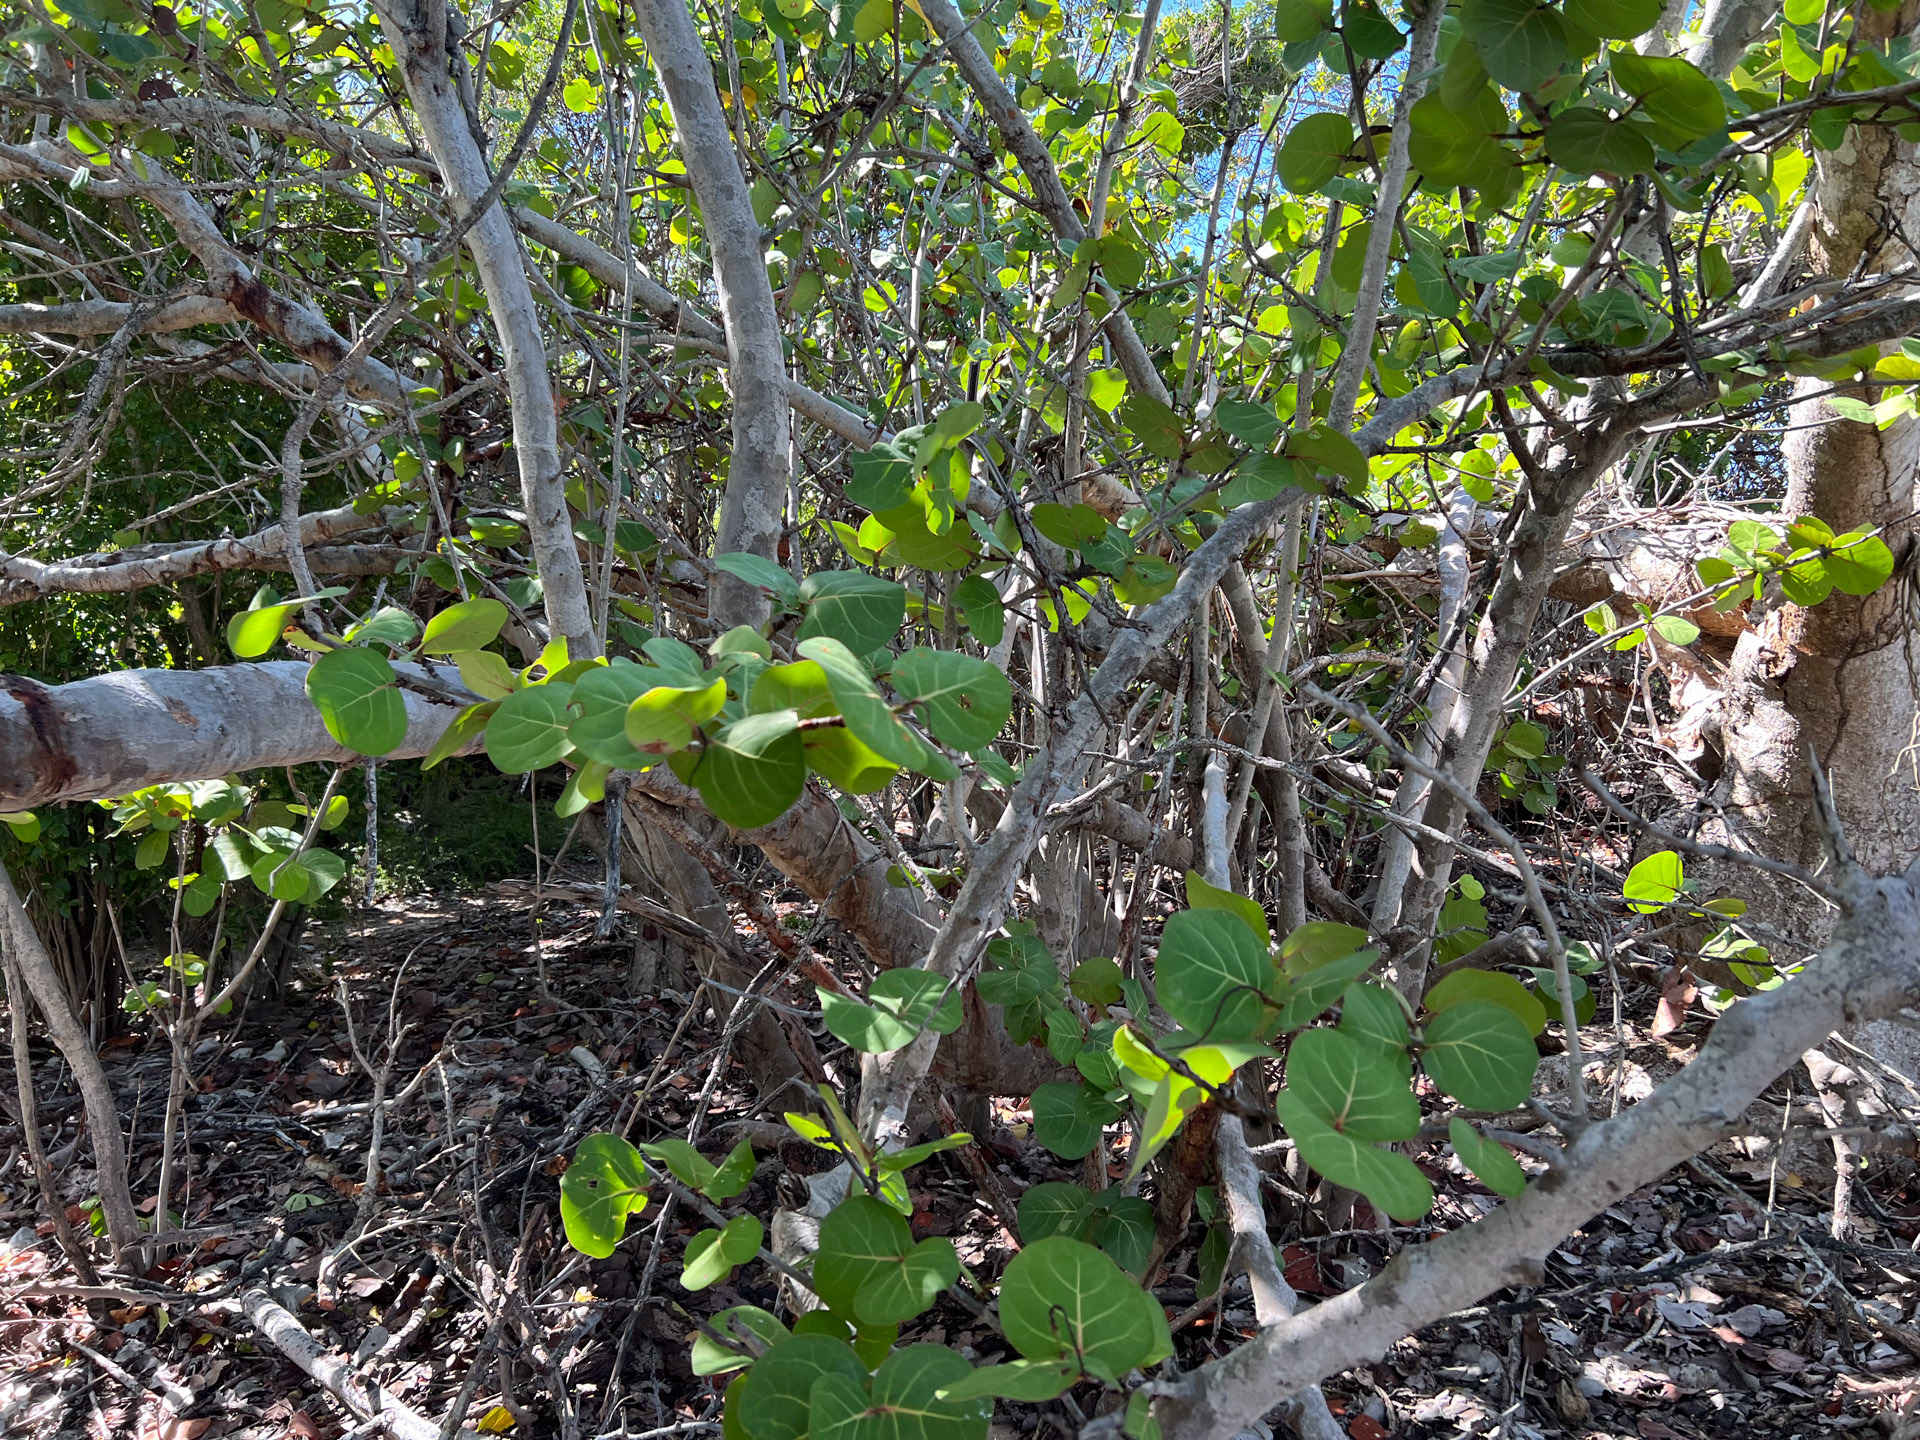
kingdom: Plantae
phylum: Tracheophyta
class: Magnoliopsida
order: Caryophyllales
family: Polygonaceae
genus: Coccoloba
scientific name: Coccoloba uvifera
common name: Seagrape
